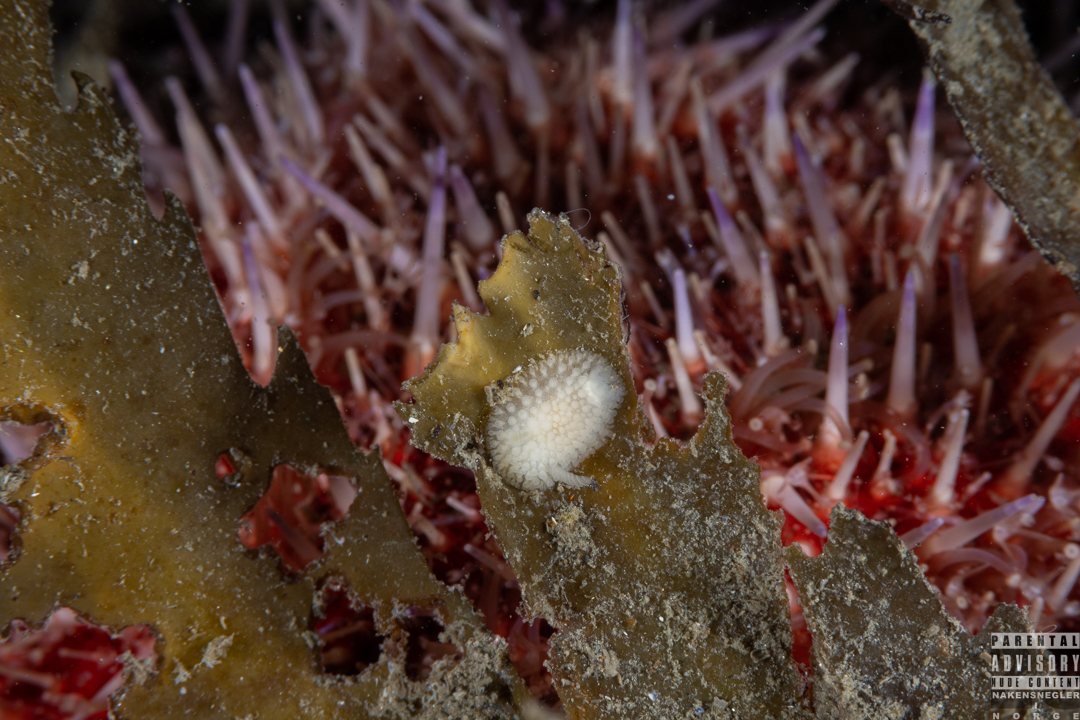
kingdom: Animalia
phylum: Mollusca
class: Gastropoda
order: Nudibranchia
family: Onchidorididae
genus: Onchidoris
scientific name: Onchidoris muricata
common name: Rough doris
